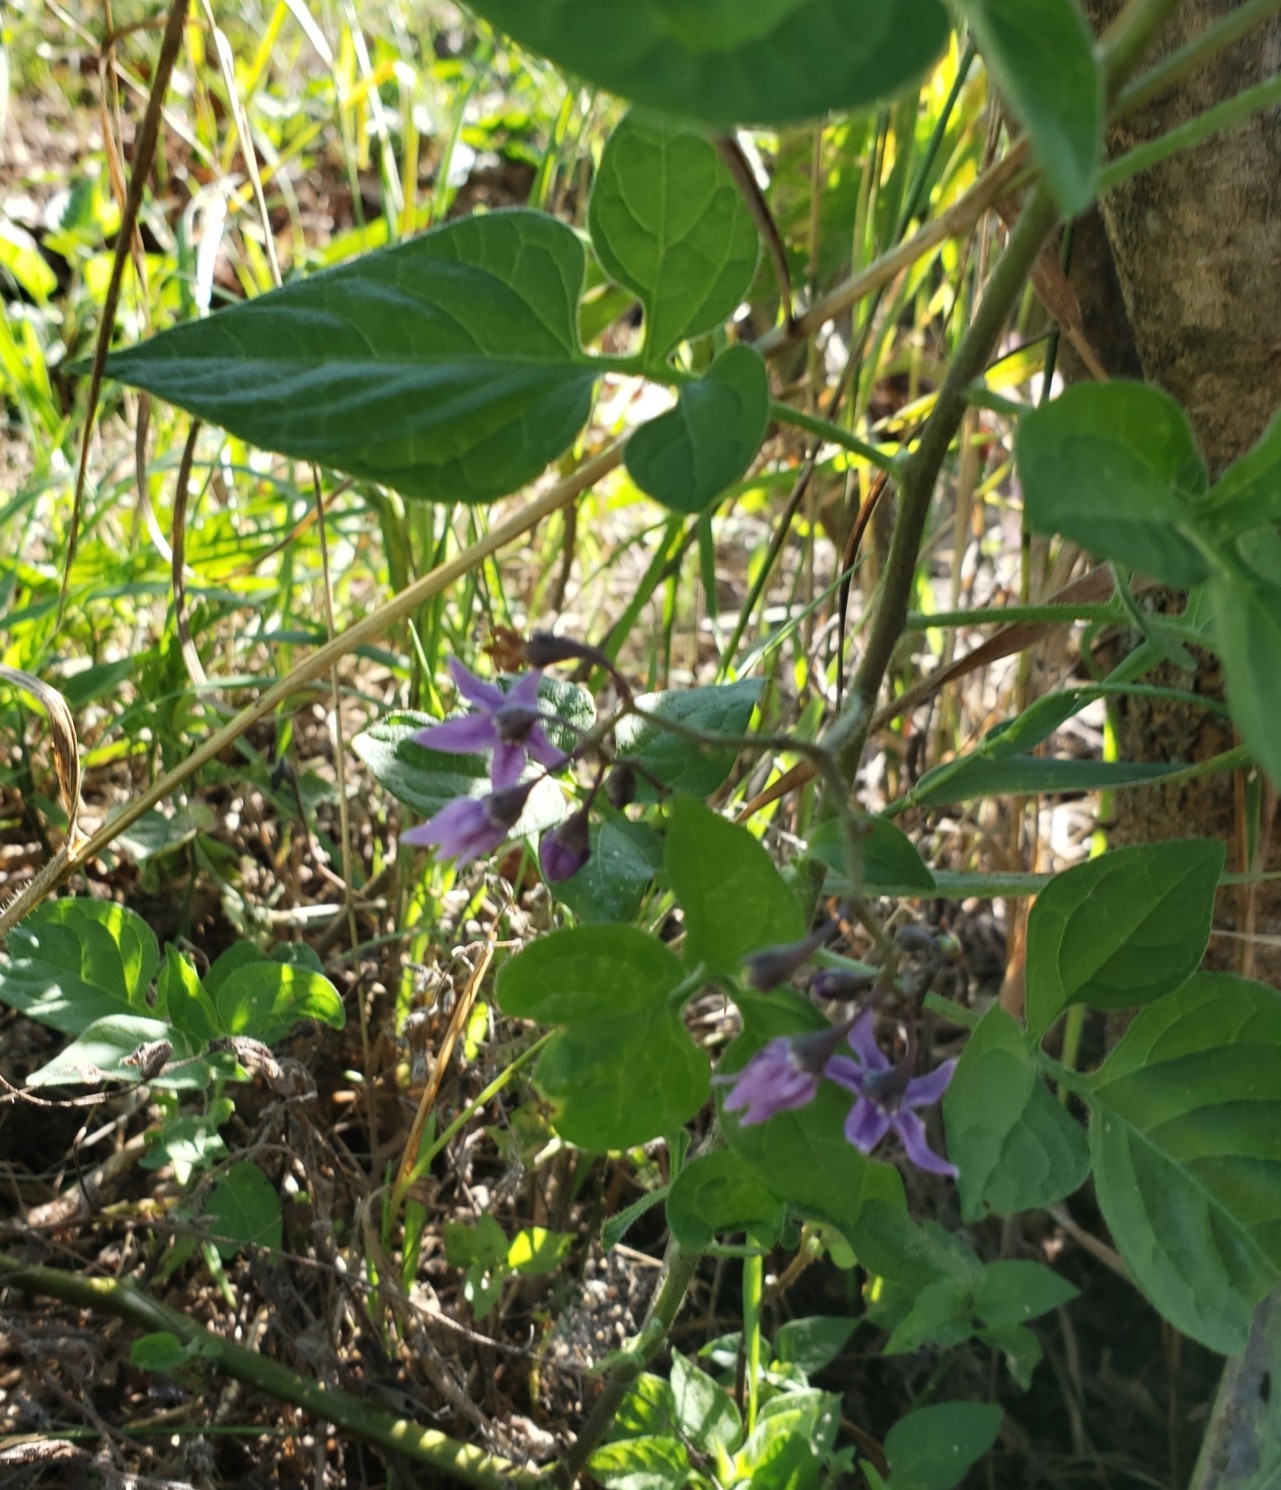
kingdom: Plantae
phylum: Tracheophyta
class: Magnoliopsida
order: Solanales
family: Solanaceae
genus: Solanum
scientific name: Solanum dulcamara
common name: Climbing nightshade
